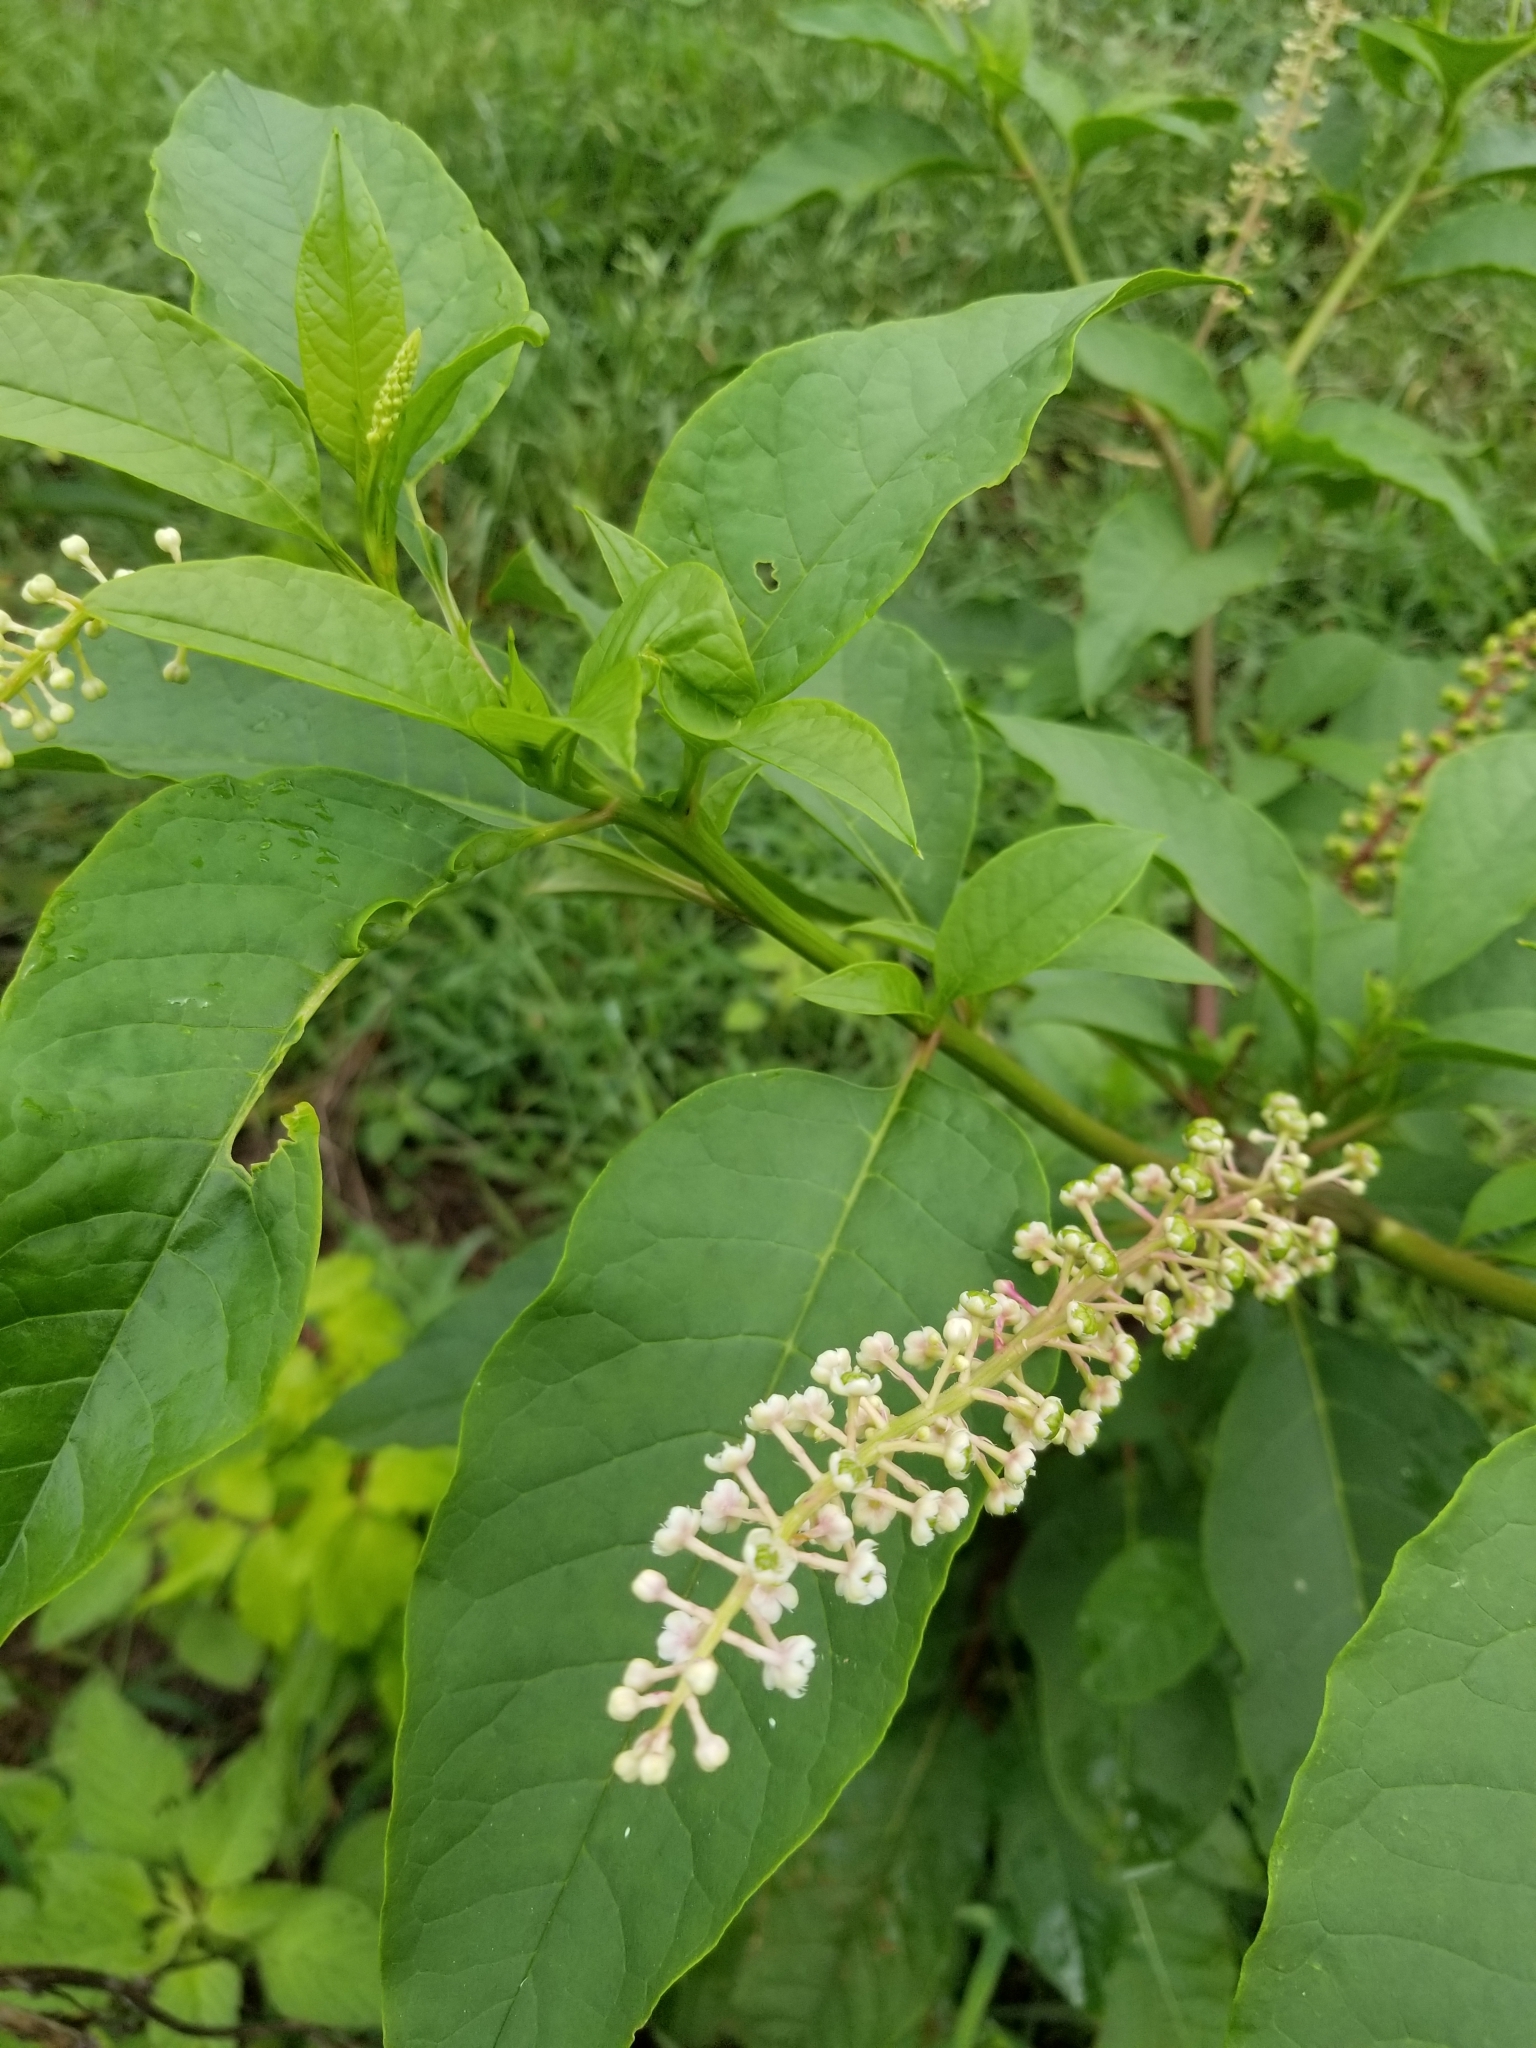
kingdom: Plantae
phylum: Tracheophyta
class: Magnoliopsida
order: Caryophyllales
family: Phytolaccaceae
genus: Phytolacca
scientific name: Phytolacca americana
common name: American pokeweed
